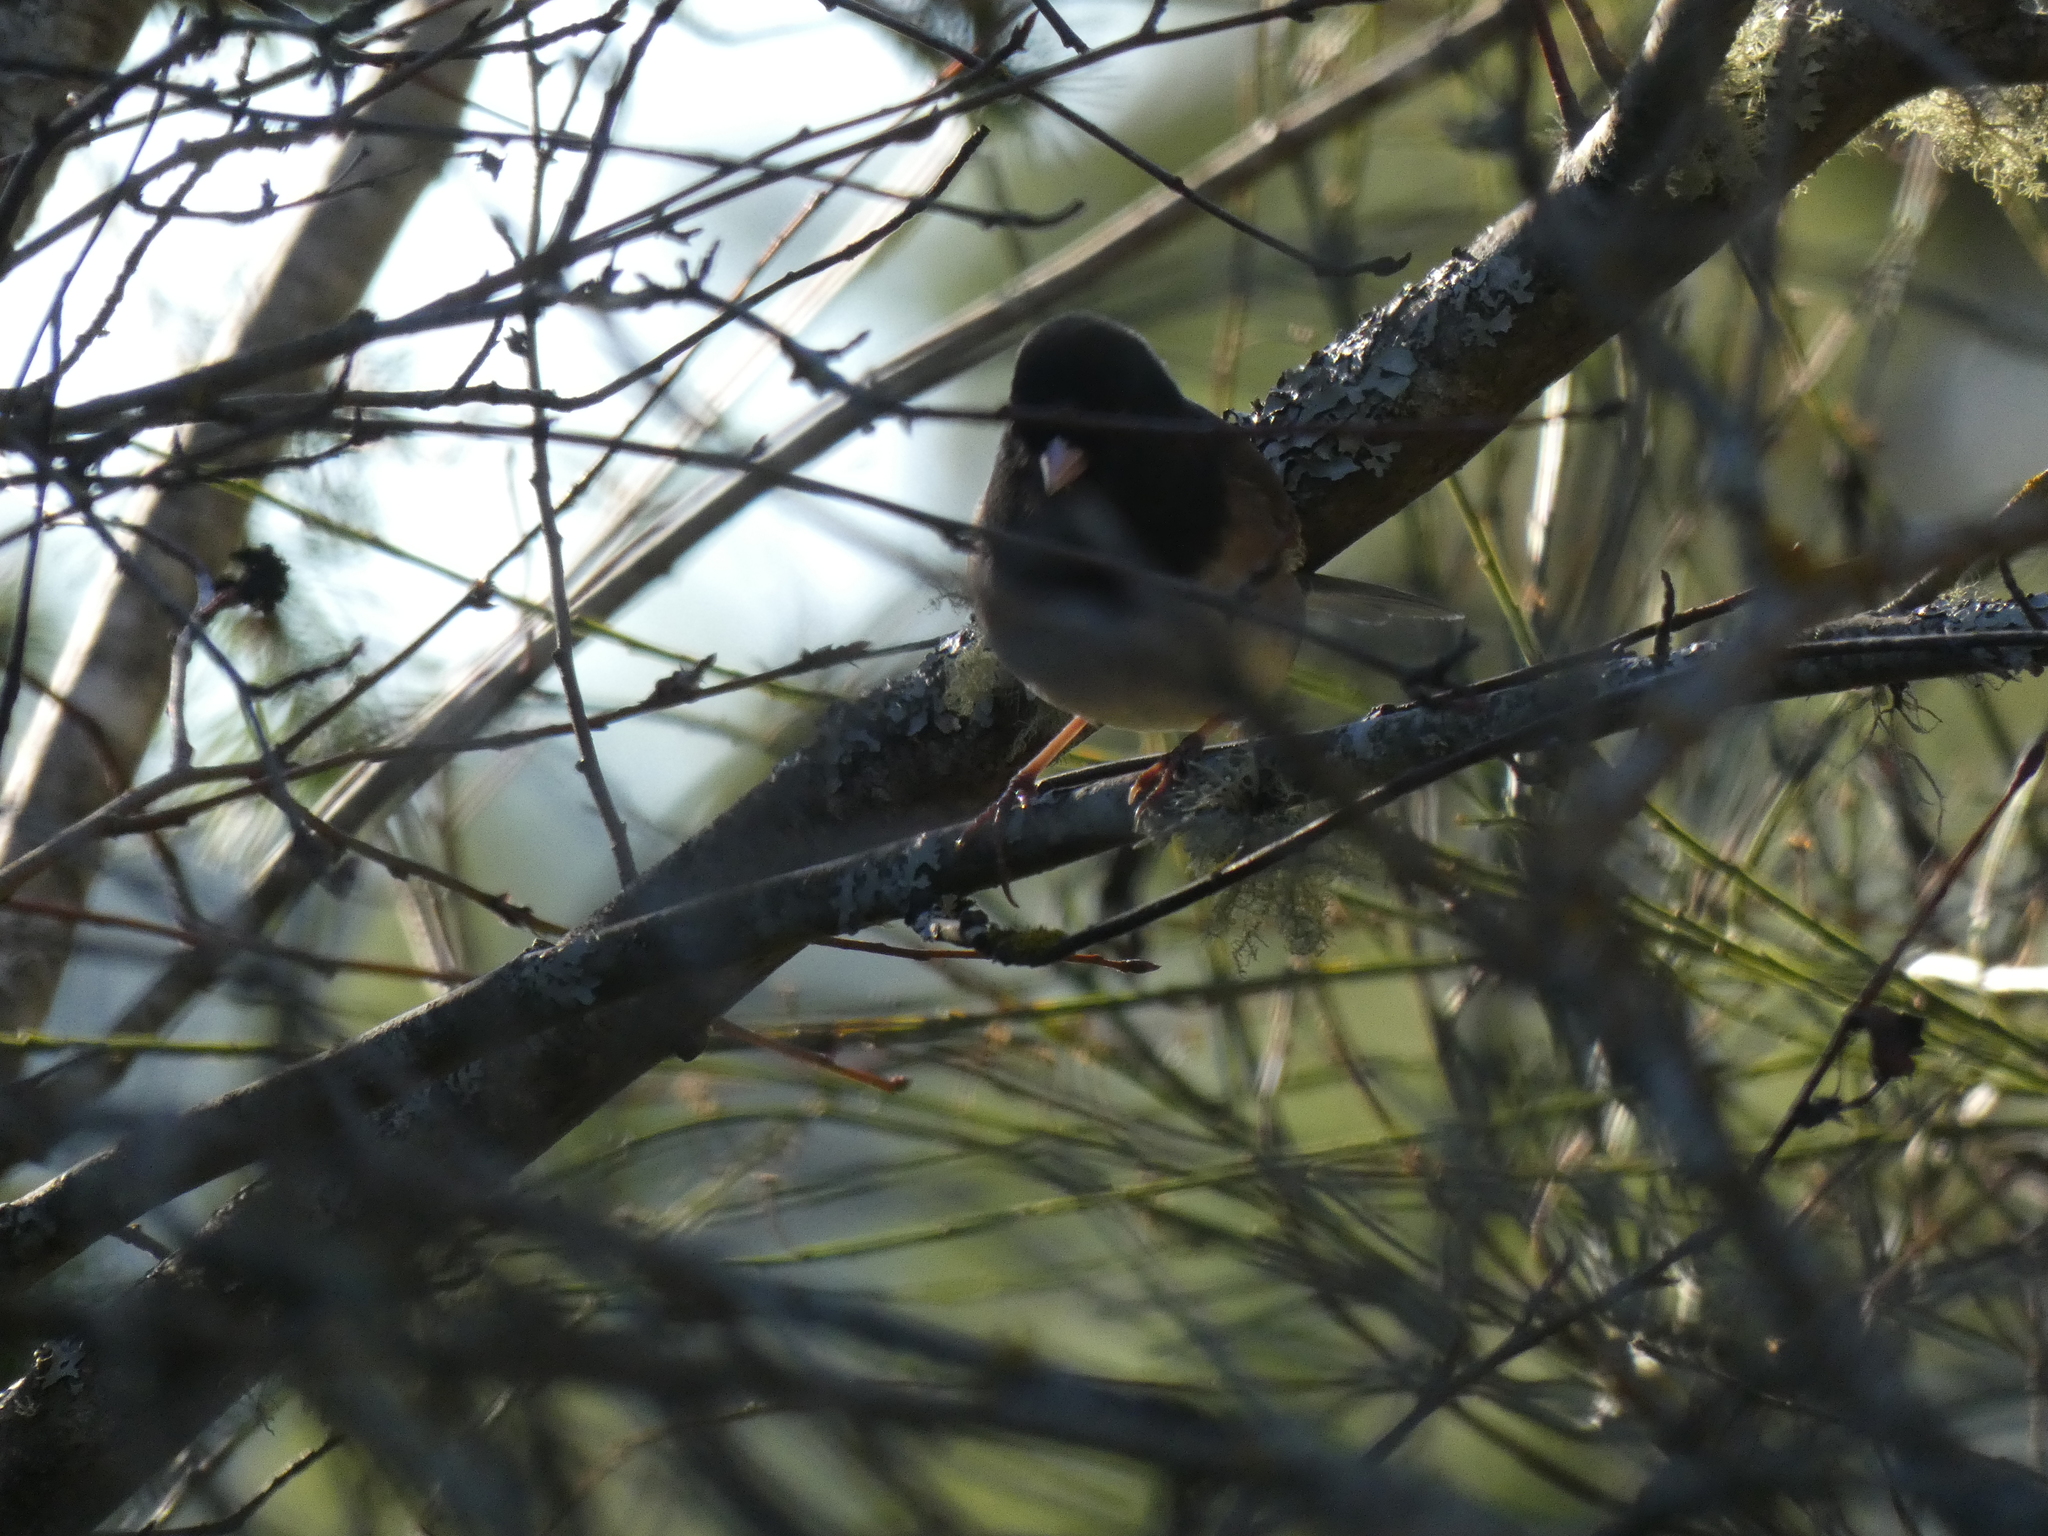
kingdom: Animalia
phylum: Chordata
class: Aves
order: Passeriformes
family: Passerellidae
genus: Junco
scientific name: Junco hyemalis
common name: Dark-eyed junco
